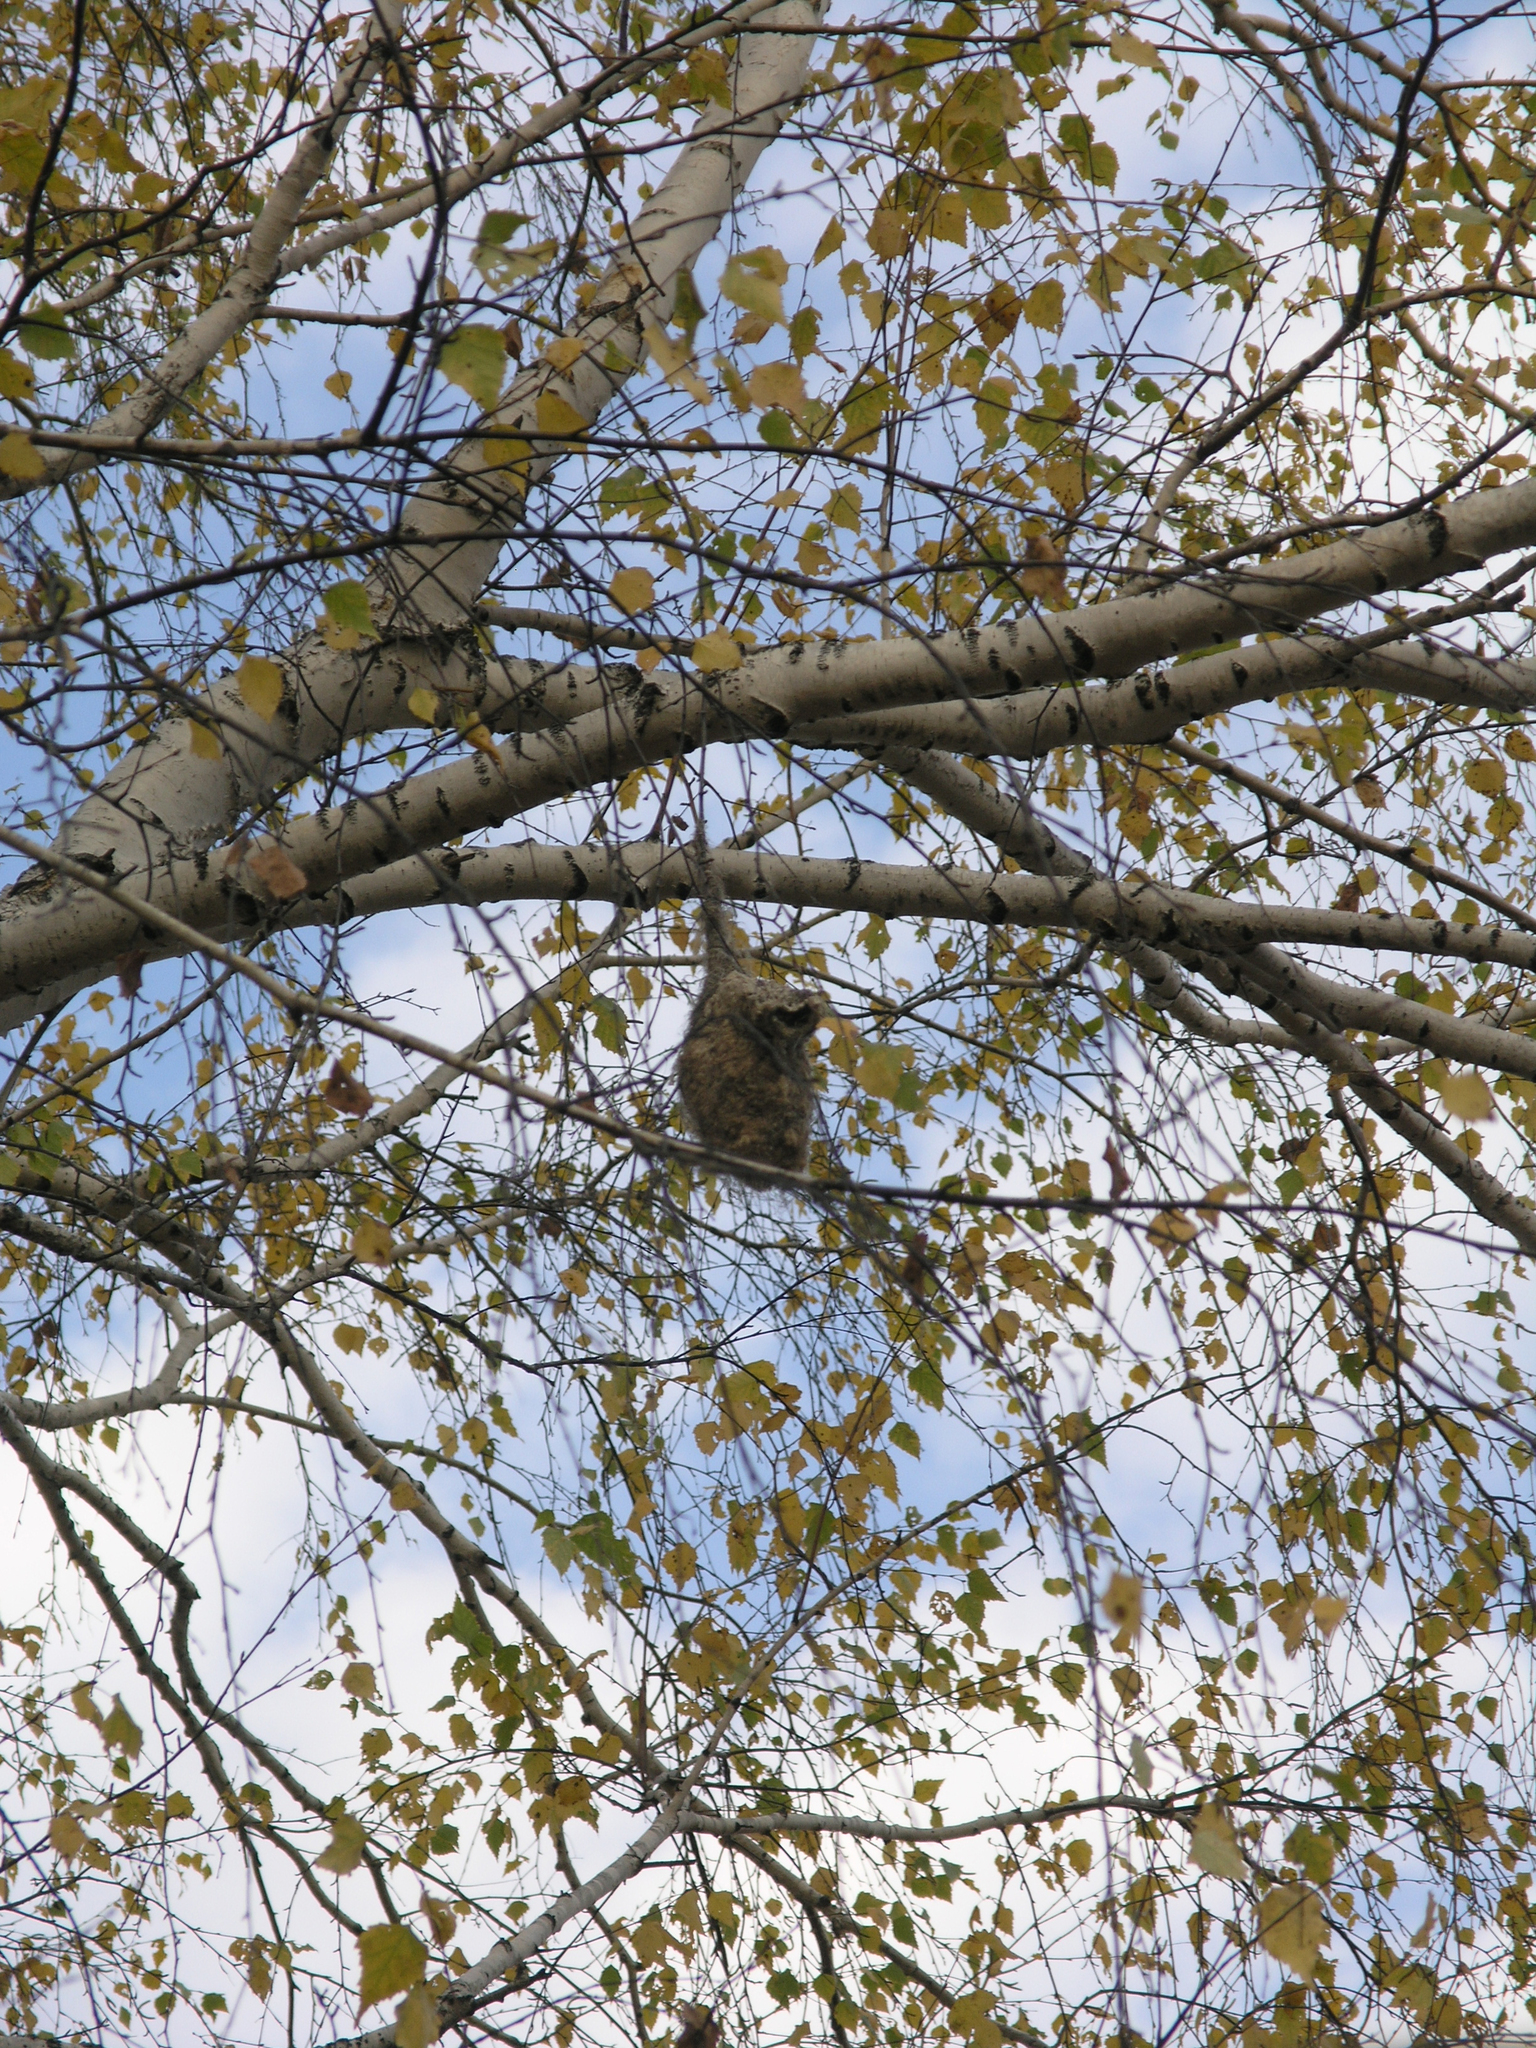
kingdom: Animalia
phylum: Chordata
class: Aves
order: Passeriformes
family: Remizidae
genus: Remiz
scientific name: Remiz pendulinus
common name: Eurasian penduline tit
